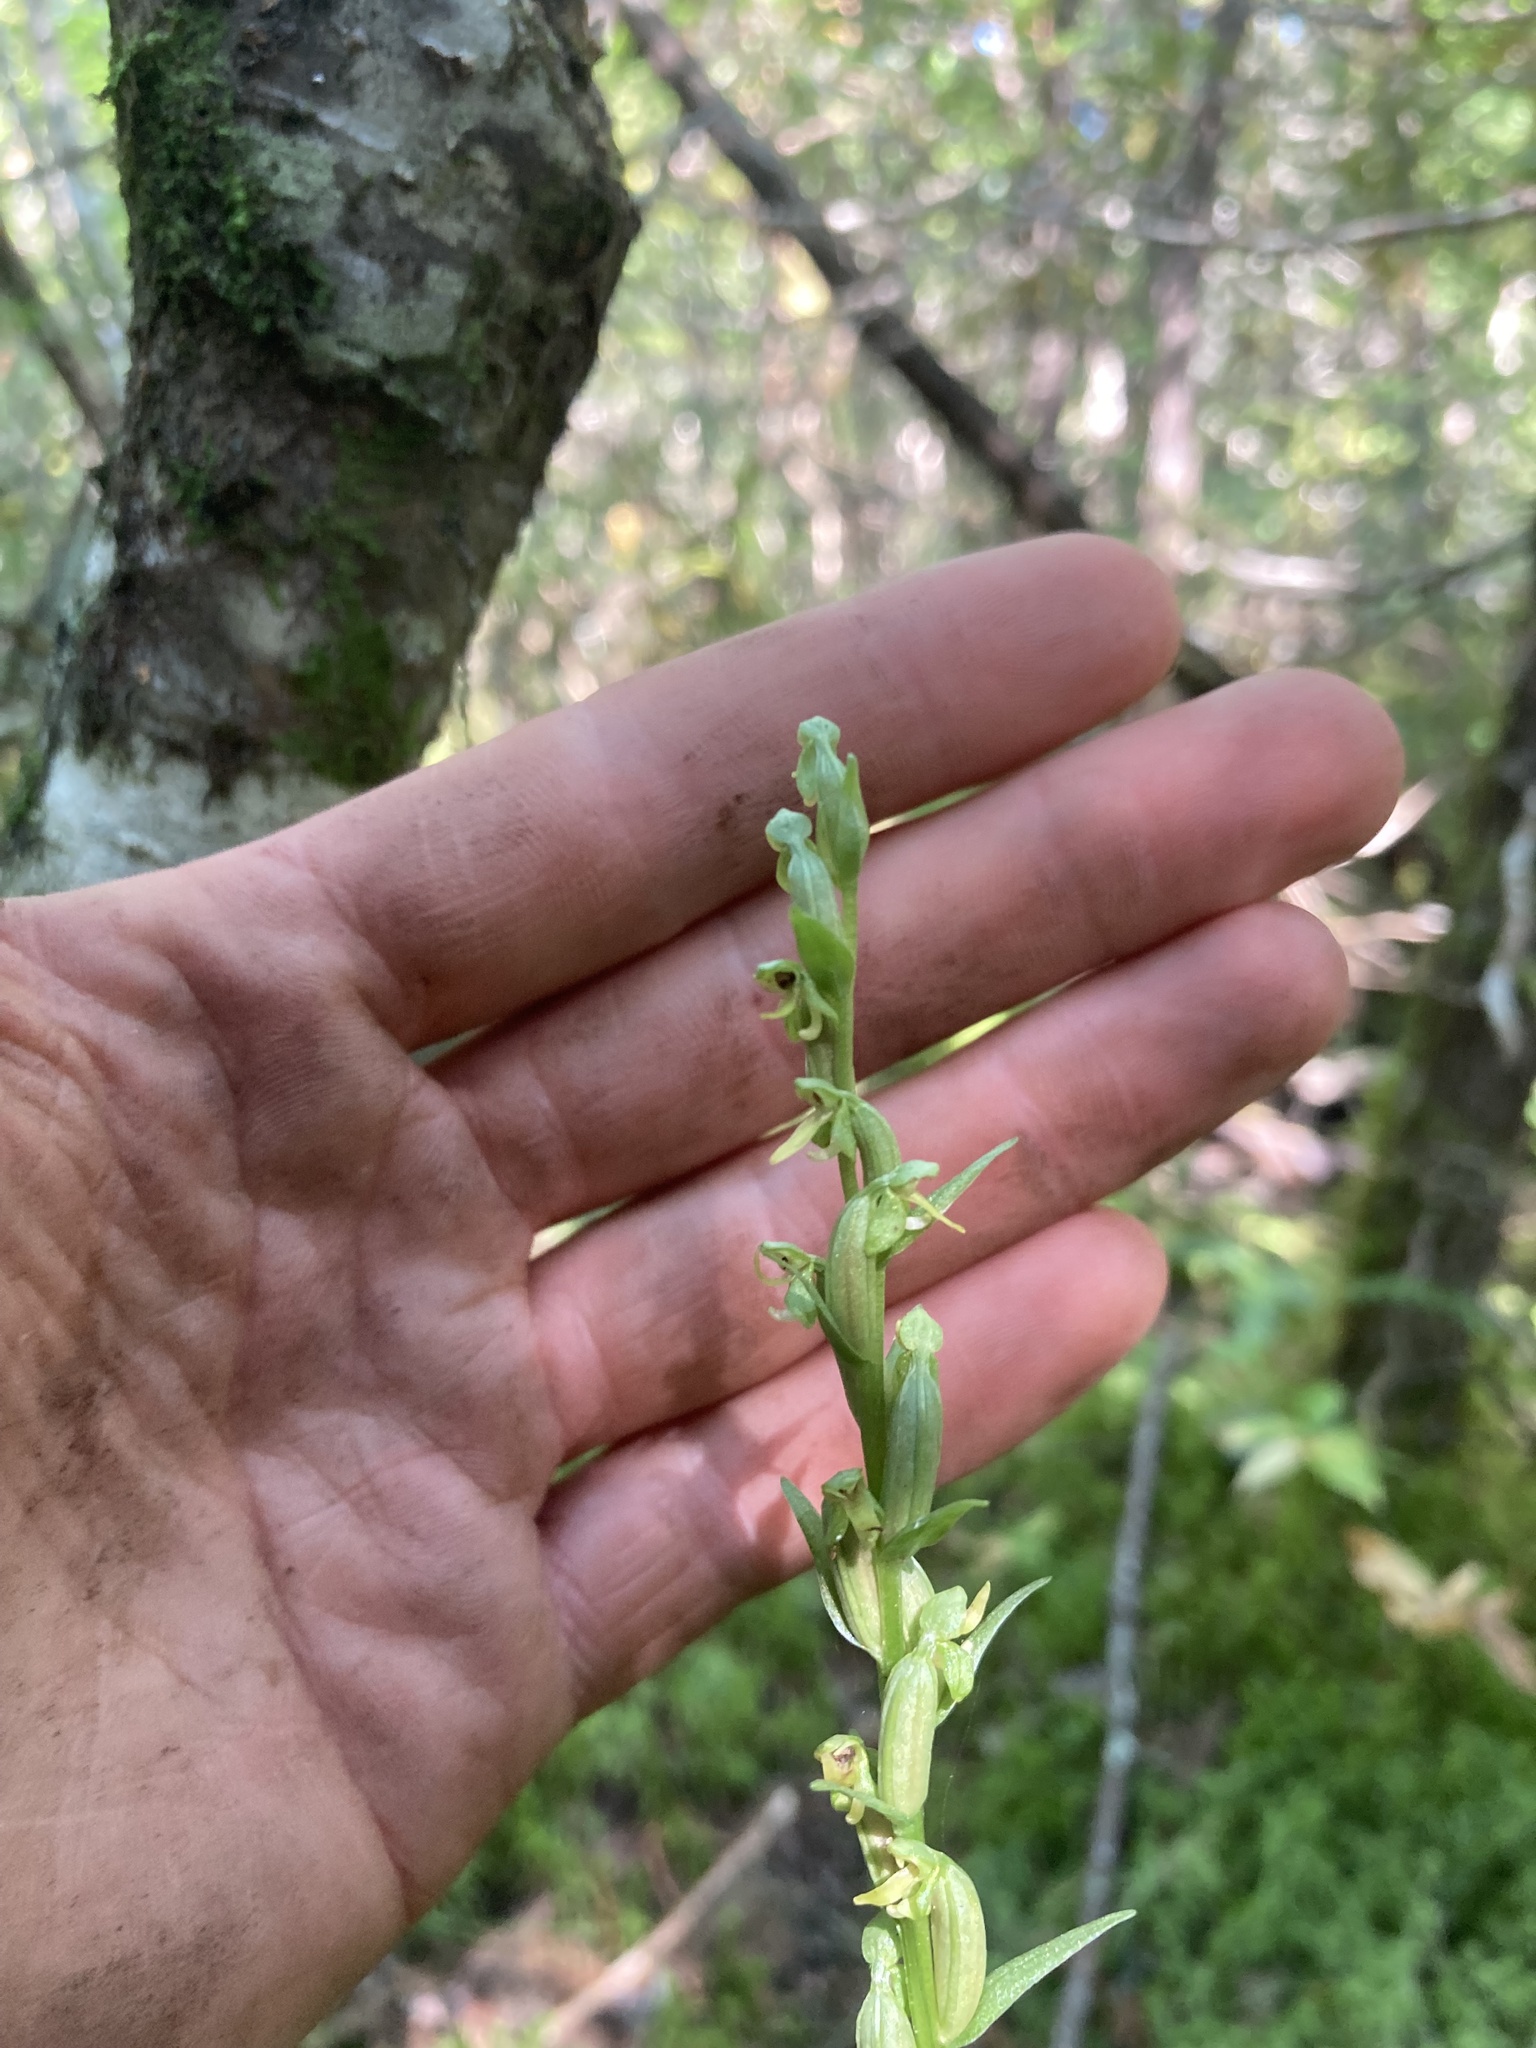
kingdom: Plantae
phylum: Tracheophyta
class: Liliopsida
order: Asparagales
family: Orchidaceae
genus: Platanthera
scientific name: Platanthera aquilonis
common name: Northern green orchid
